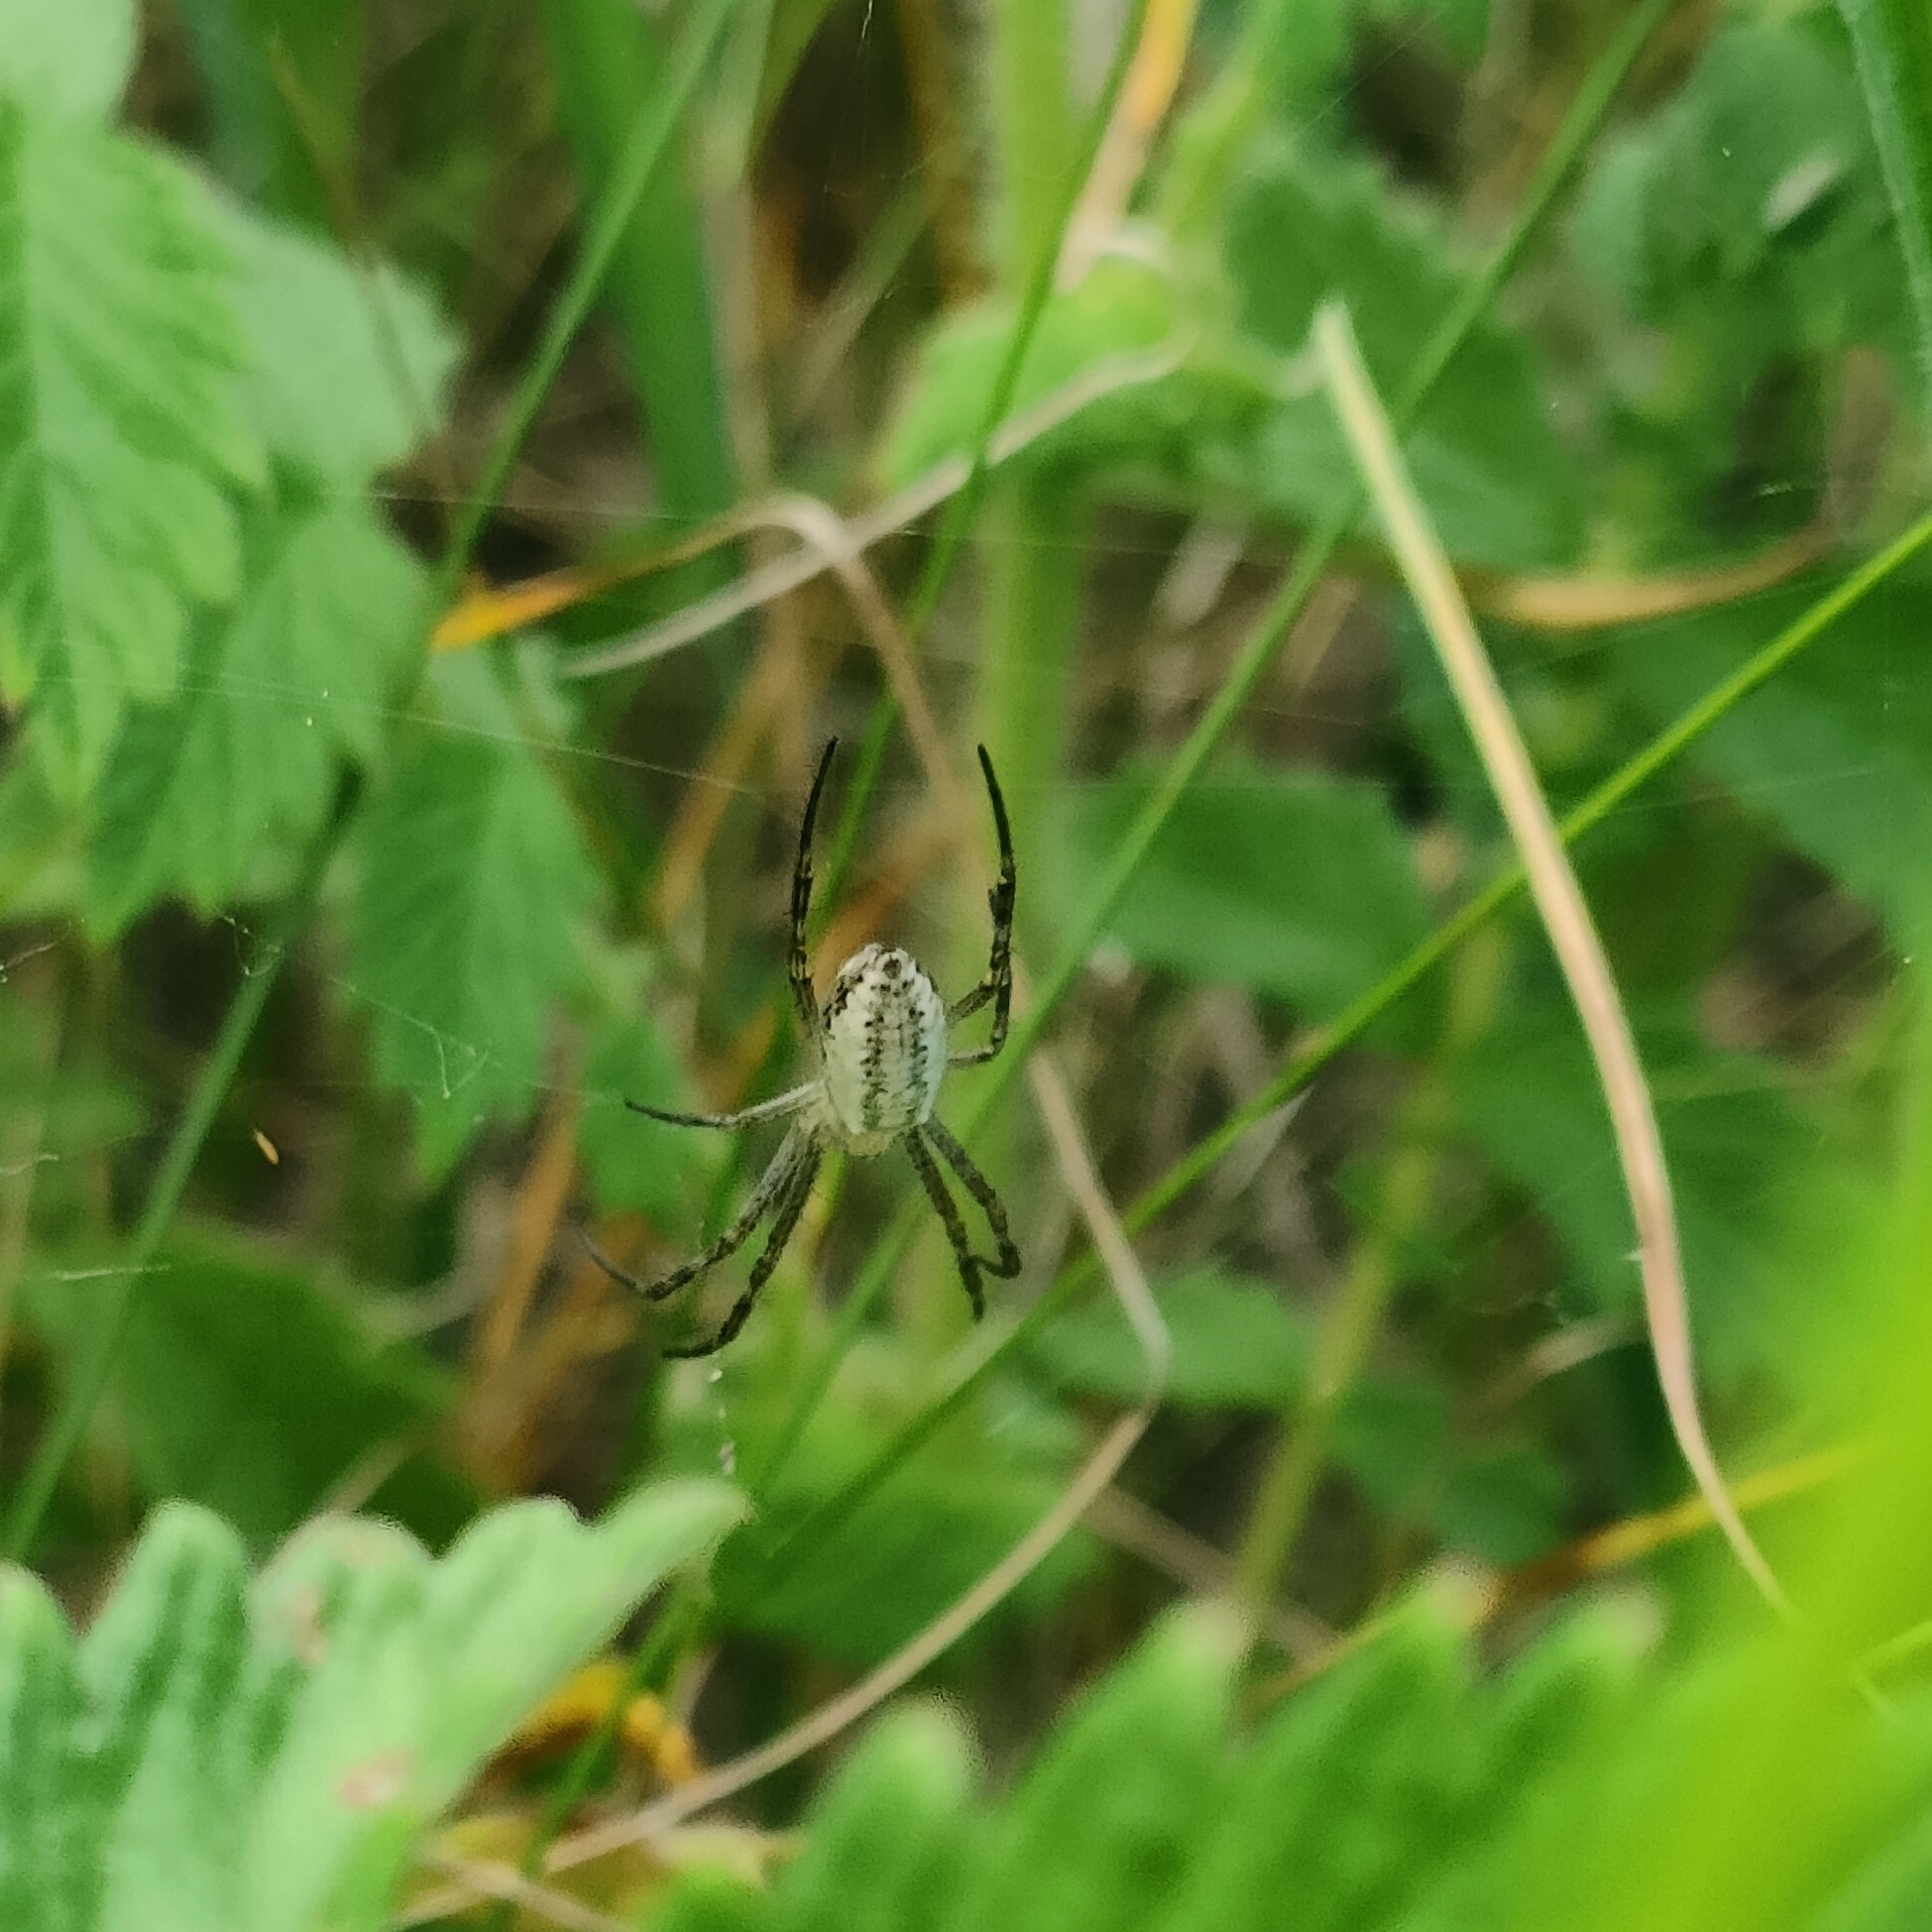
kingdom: Animalia
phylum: Arthropoda
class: Arachnida
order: Araneae
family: Araneidae
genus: Argiope
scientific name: Argiope bruennichi
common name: Wasp spider
